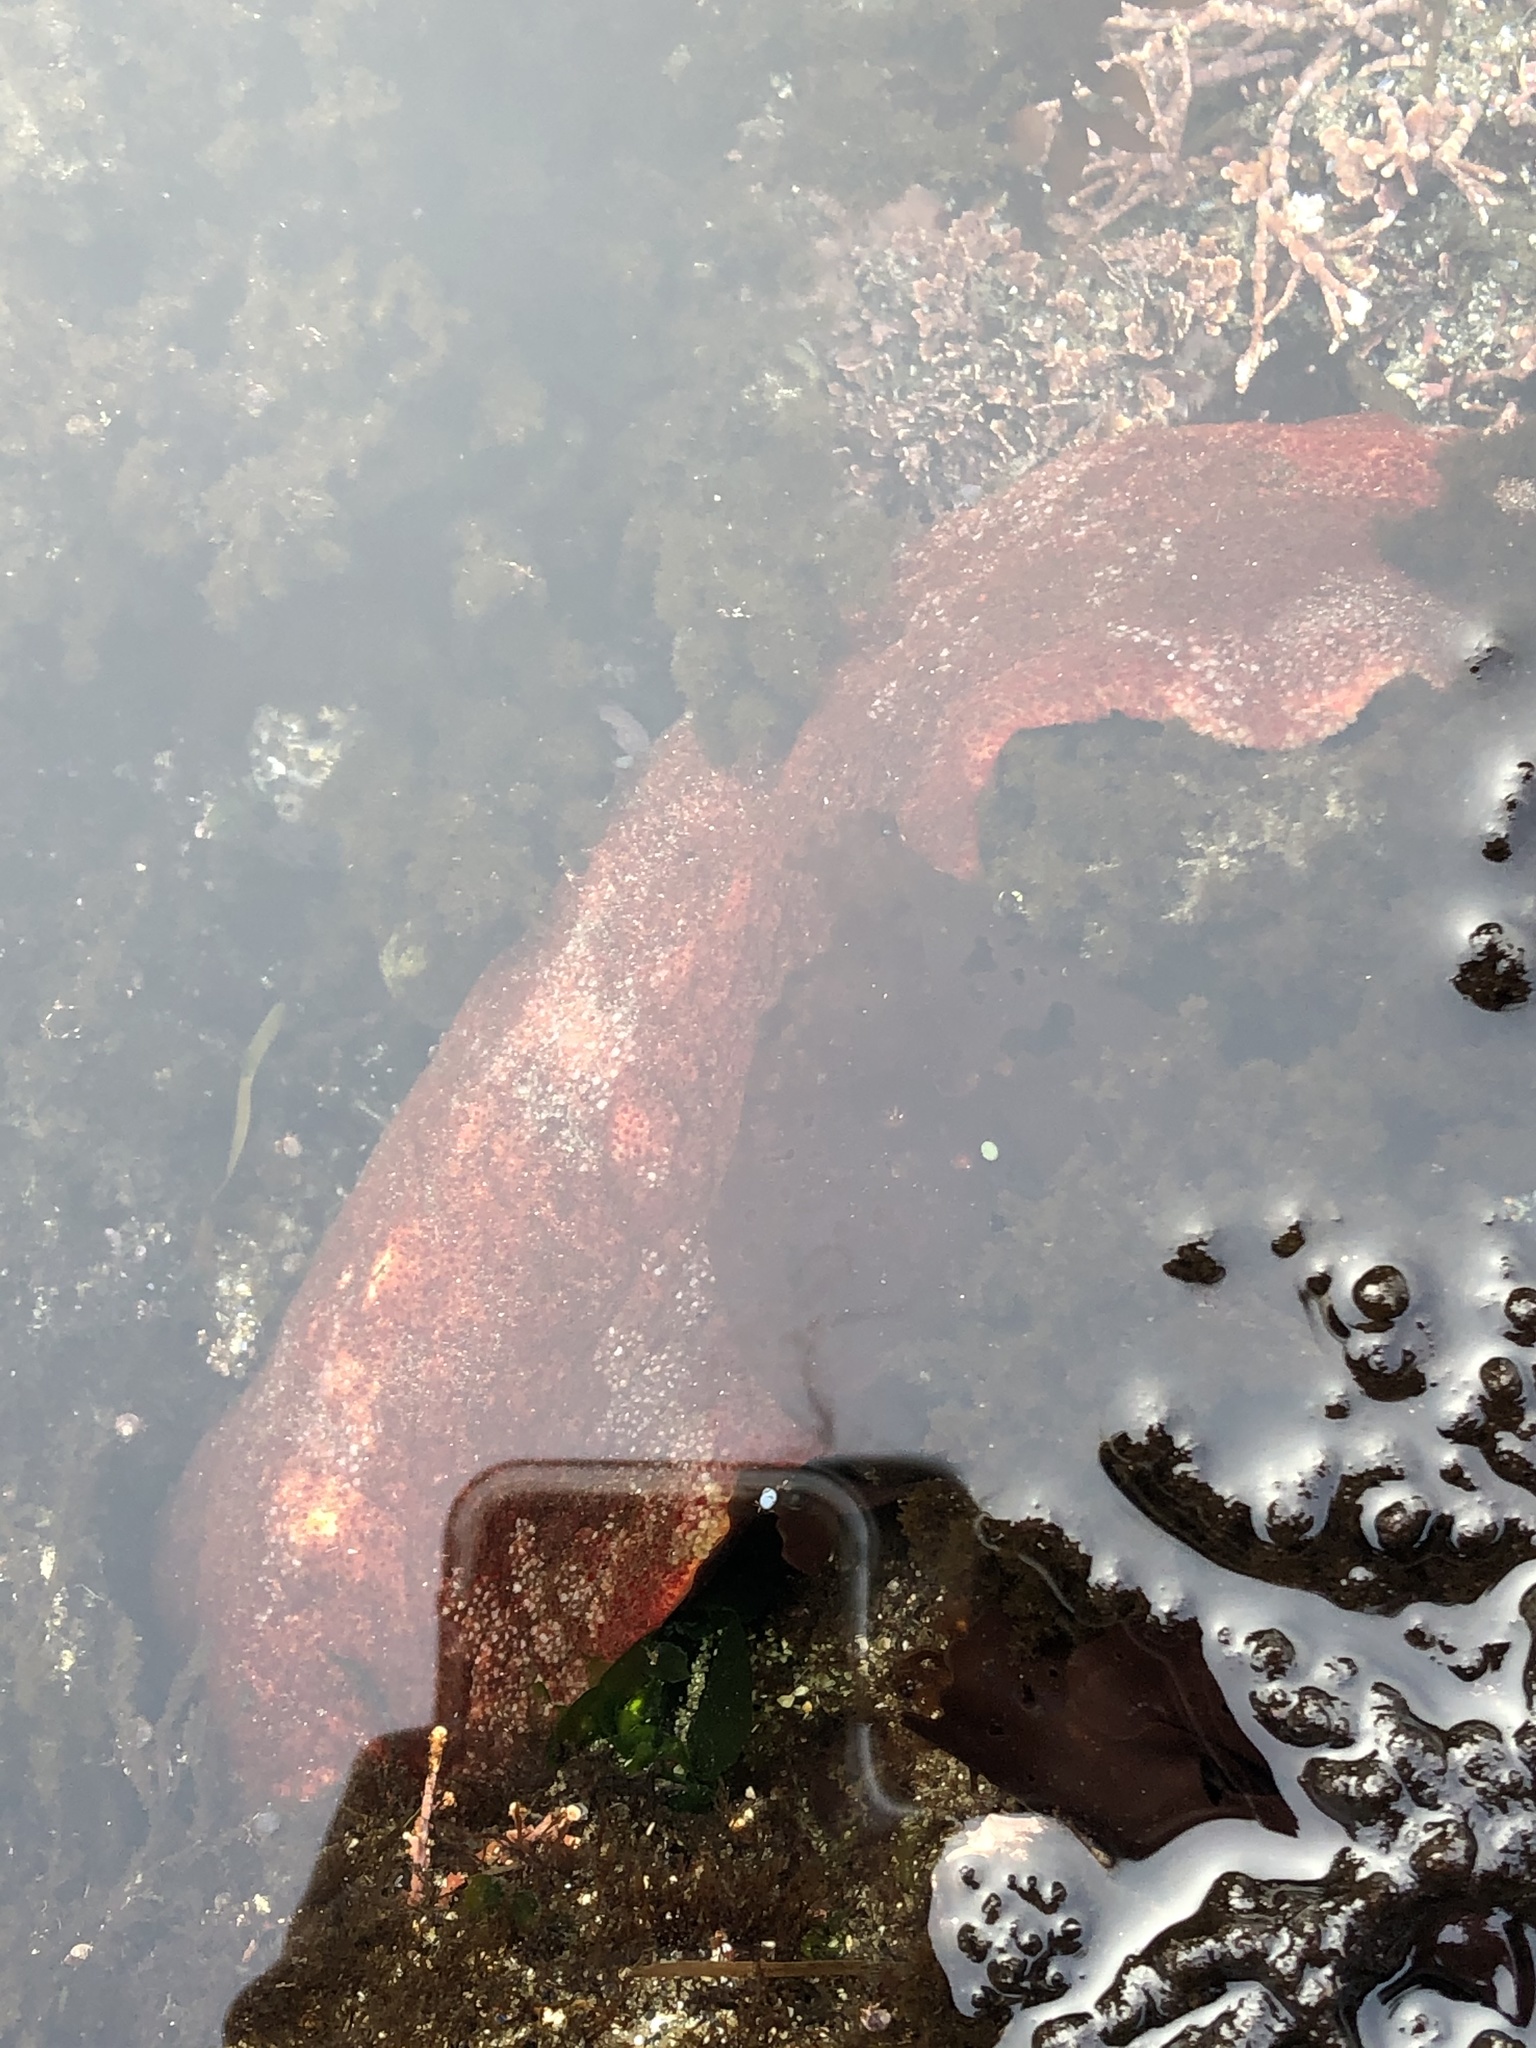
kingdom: Animalia
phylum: Mollusca
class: Polyplacophora
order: Chitonida
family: Acanthochitonidae
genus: Cryptochiton
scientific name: Cryptochiton stelleri
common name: Giant pacific chiton
